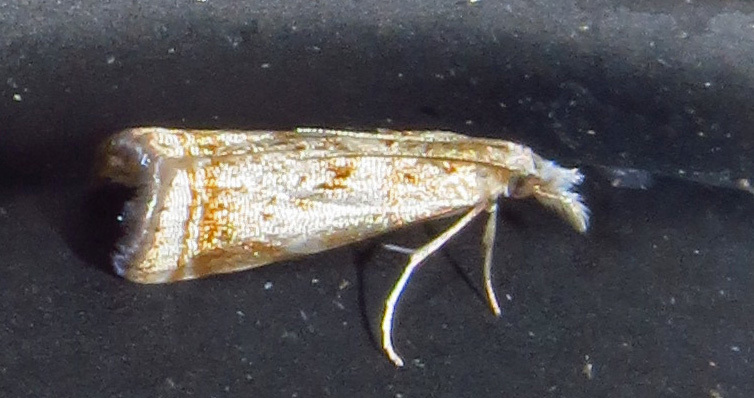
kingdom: Animalia
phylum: Arthropoda
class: Insecta
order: Lepidoptera
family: Crambidae
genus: Microcrambus
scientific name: Microcrambus elegans
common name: Elegant grass-veneer
